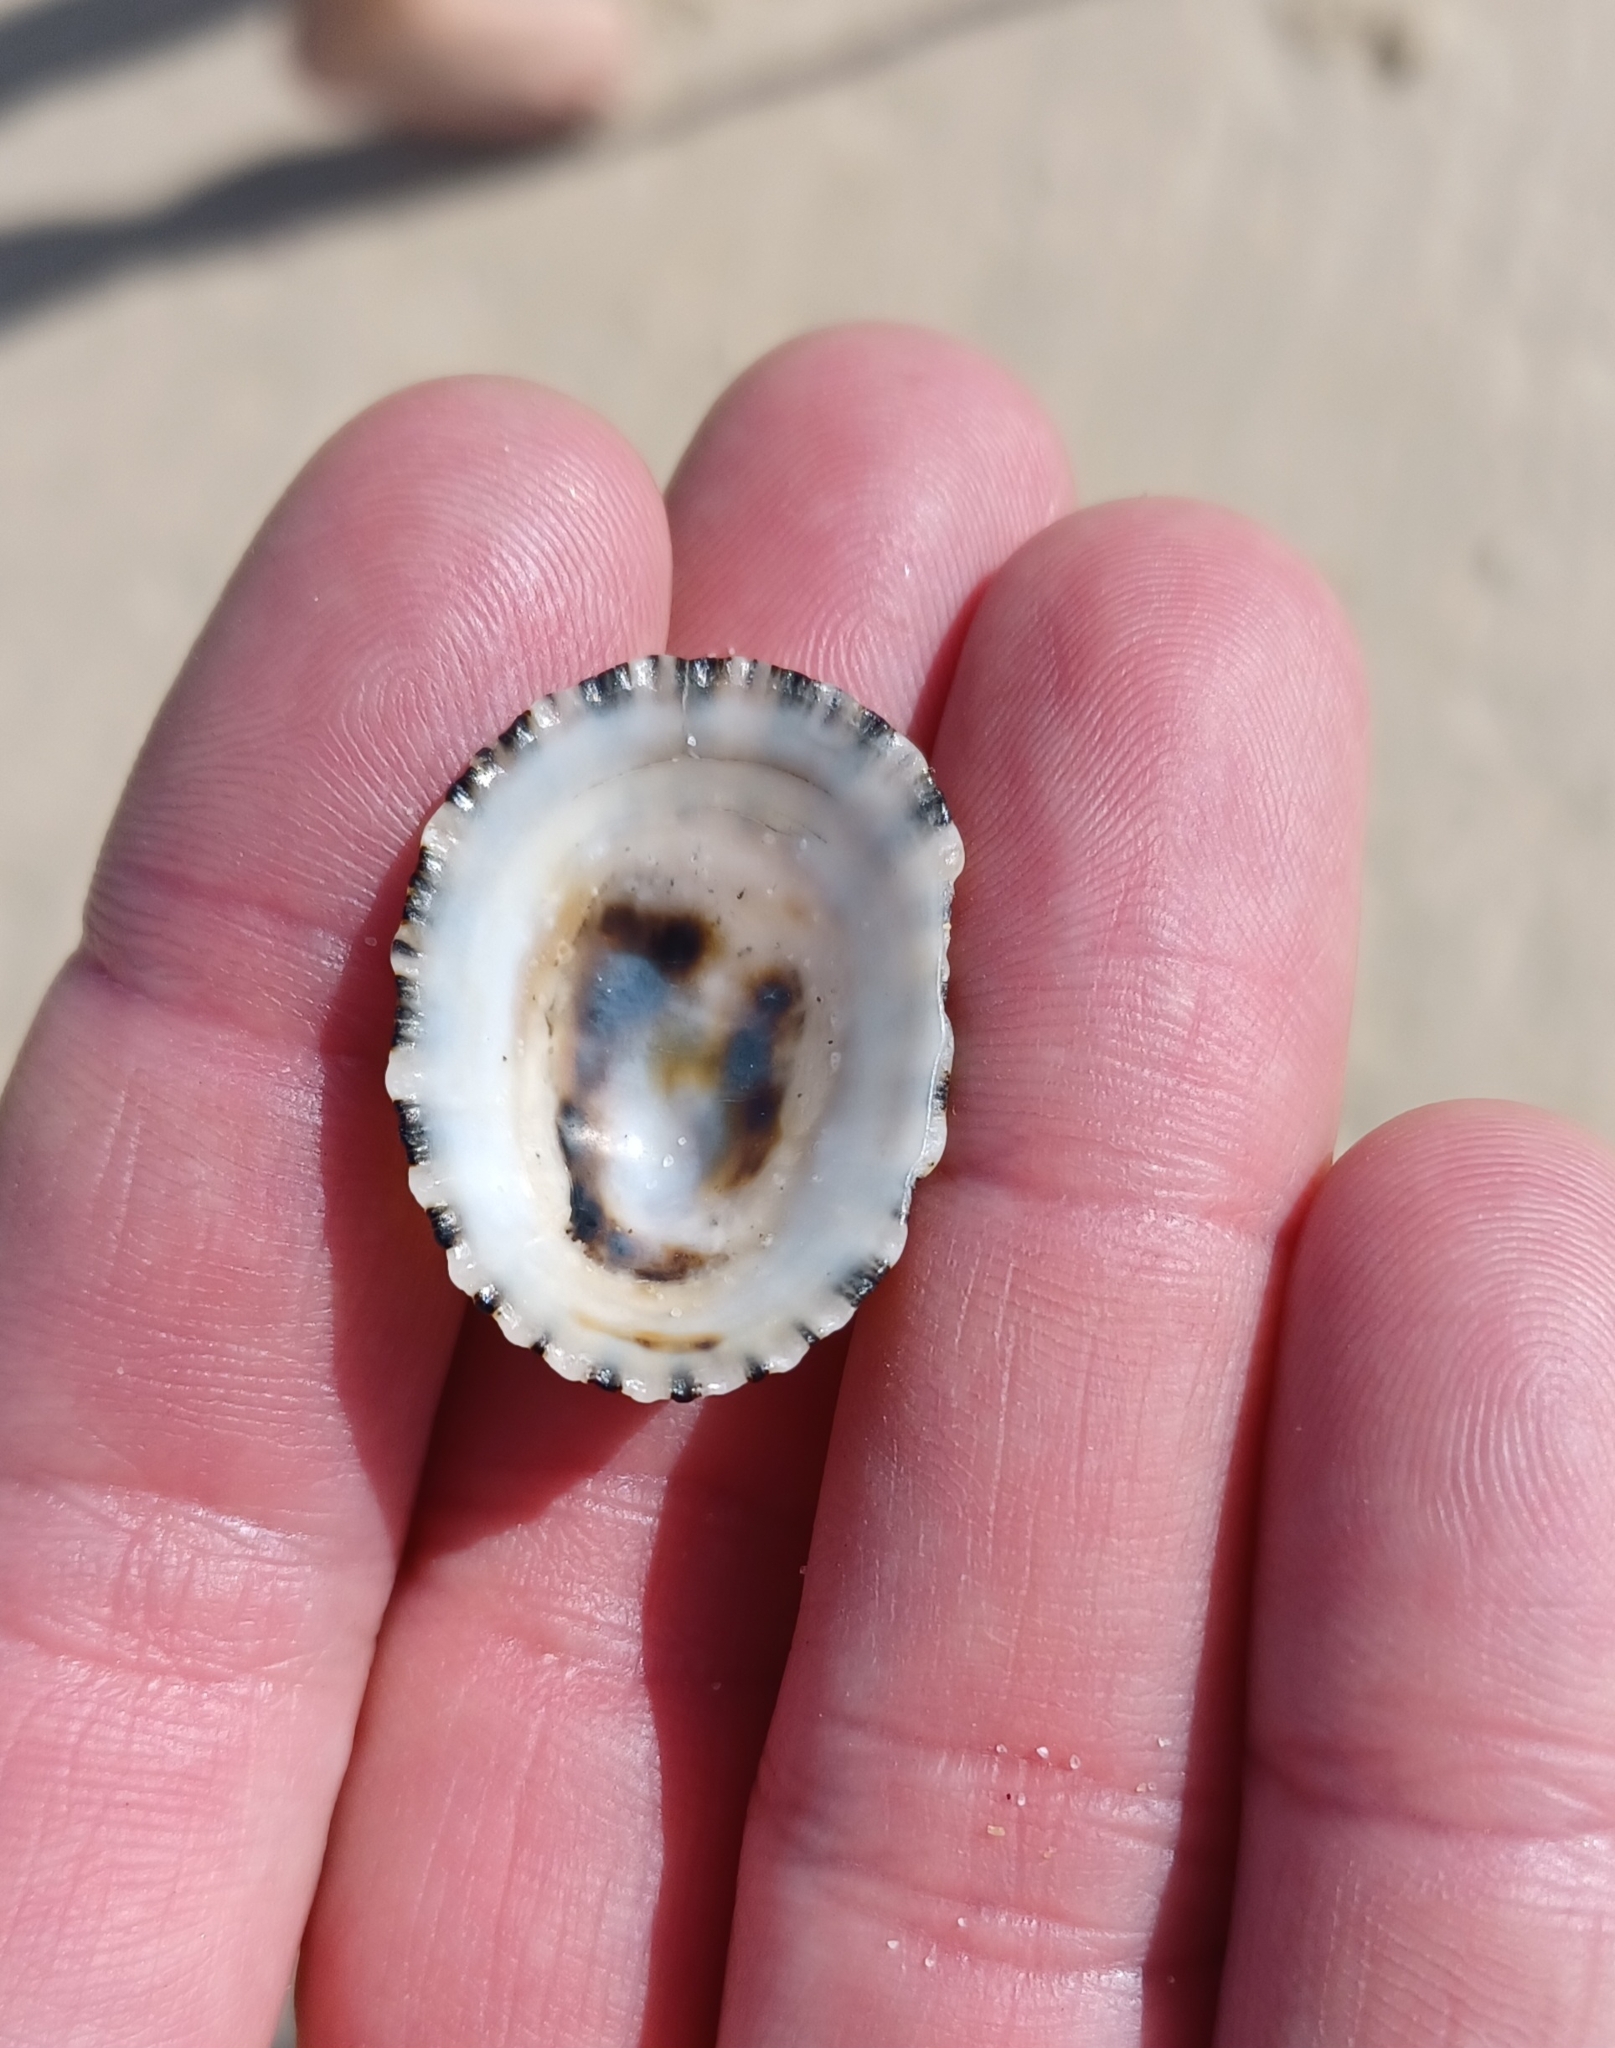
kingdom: Animalia
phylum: Mollusca
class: Gastropoda
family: Patellidae
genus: Scutellastra
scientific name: Scutellastra peronii
